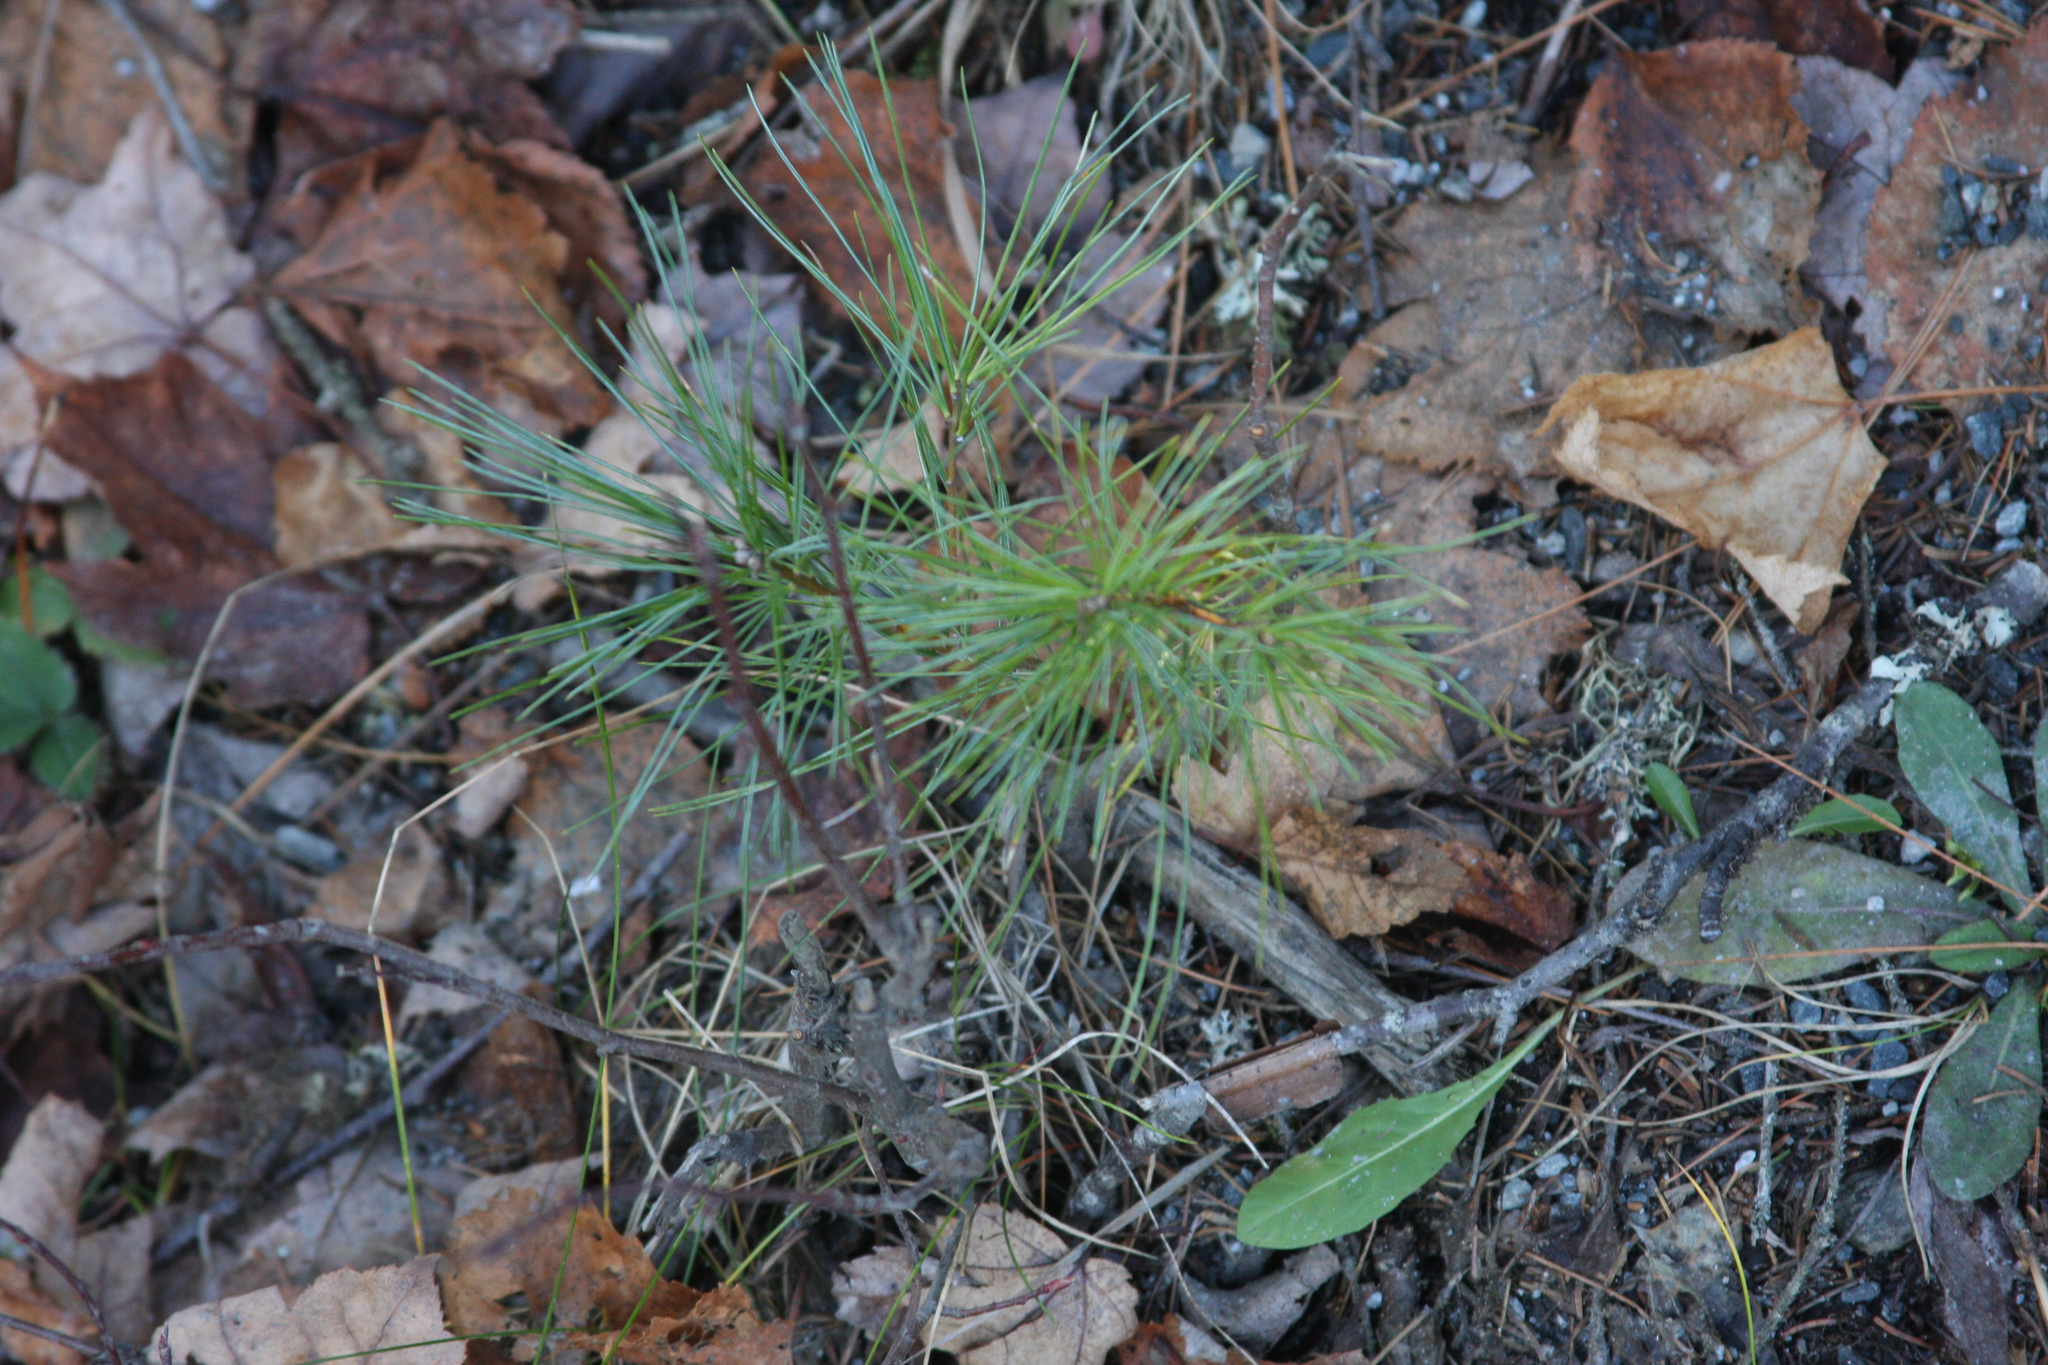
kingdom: Plantae
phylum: Tracheophyta
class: Pinopsida
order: Pinales
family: Pinaceae
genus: Pinus
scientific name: Pinus strobus
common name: Weymouth pine
